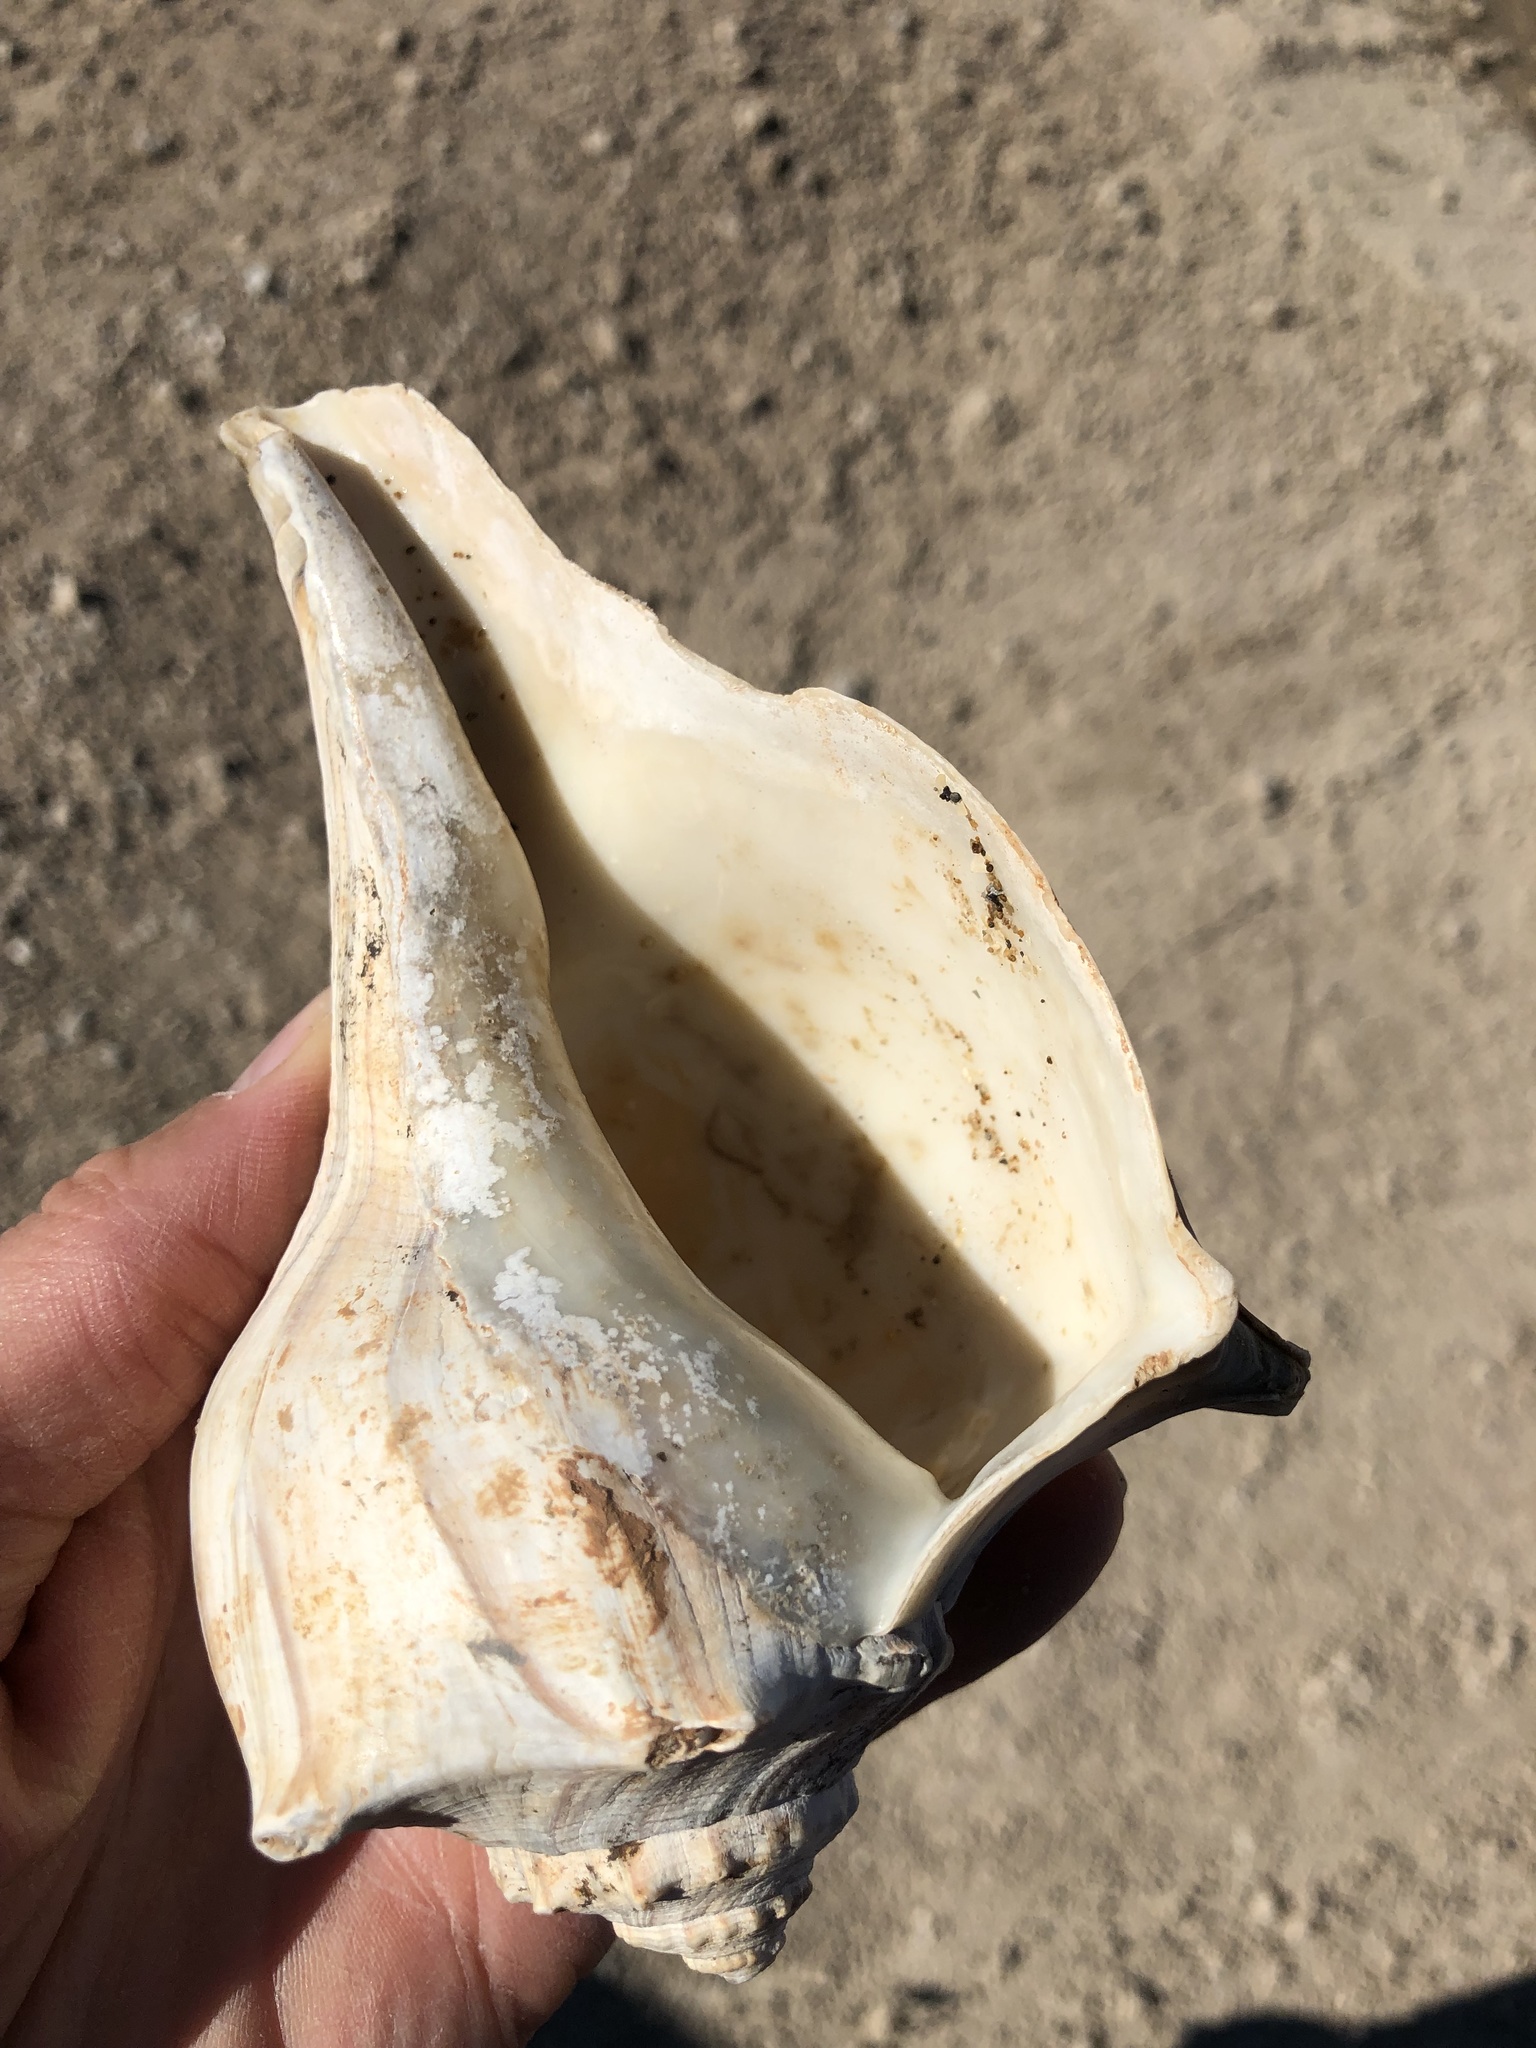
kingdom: Animalia
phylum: Mollusca
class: Gastropoda
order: Neogastropoda
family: Busyconidae
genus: Sinistrofulgur
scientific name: Sinistrofulgur pulleyi
